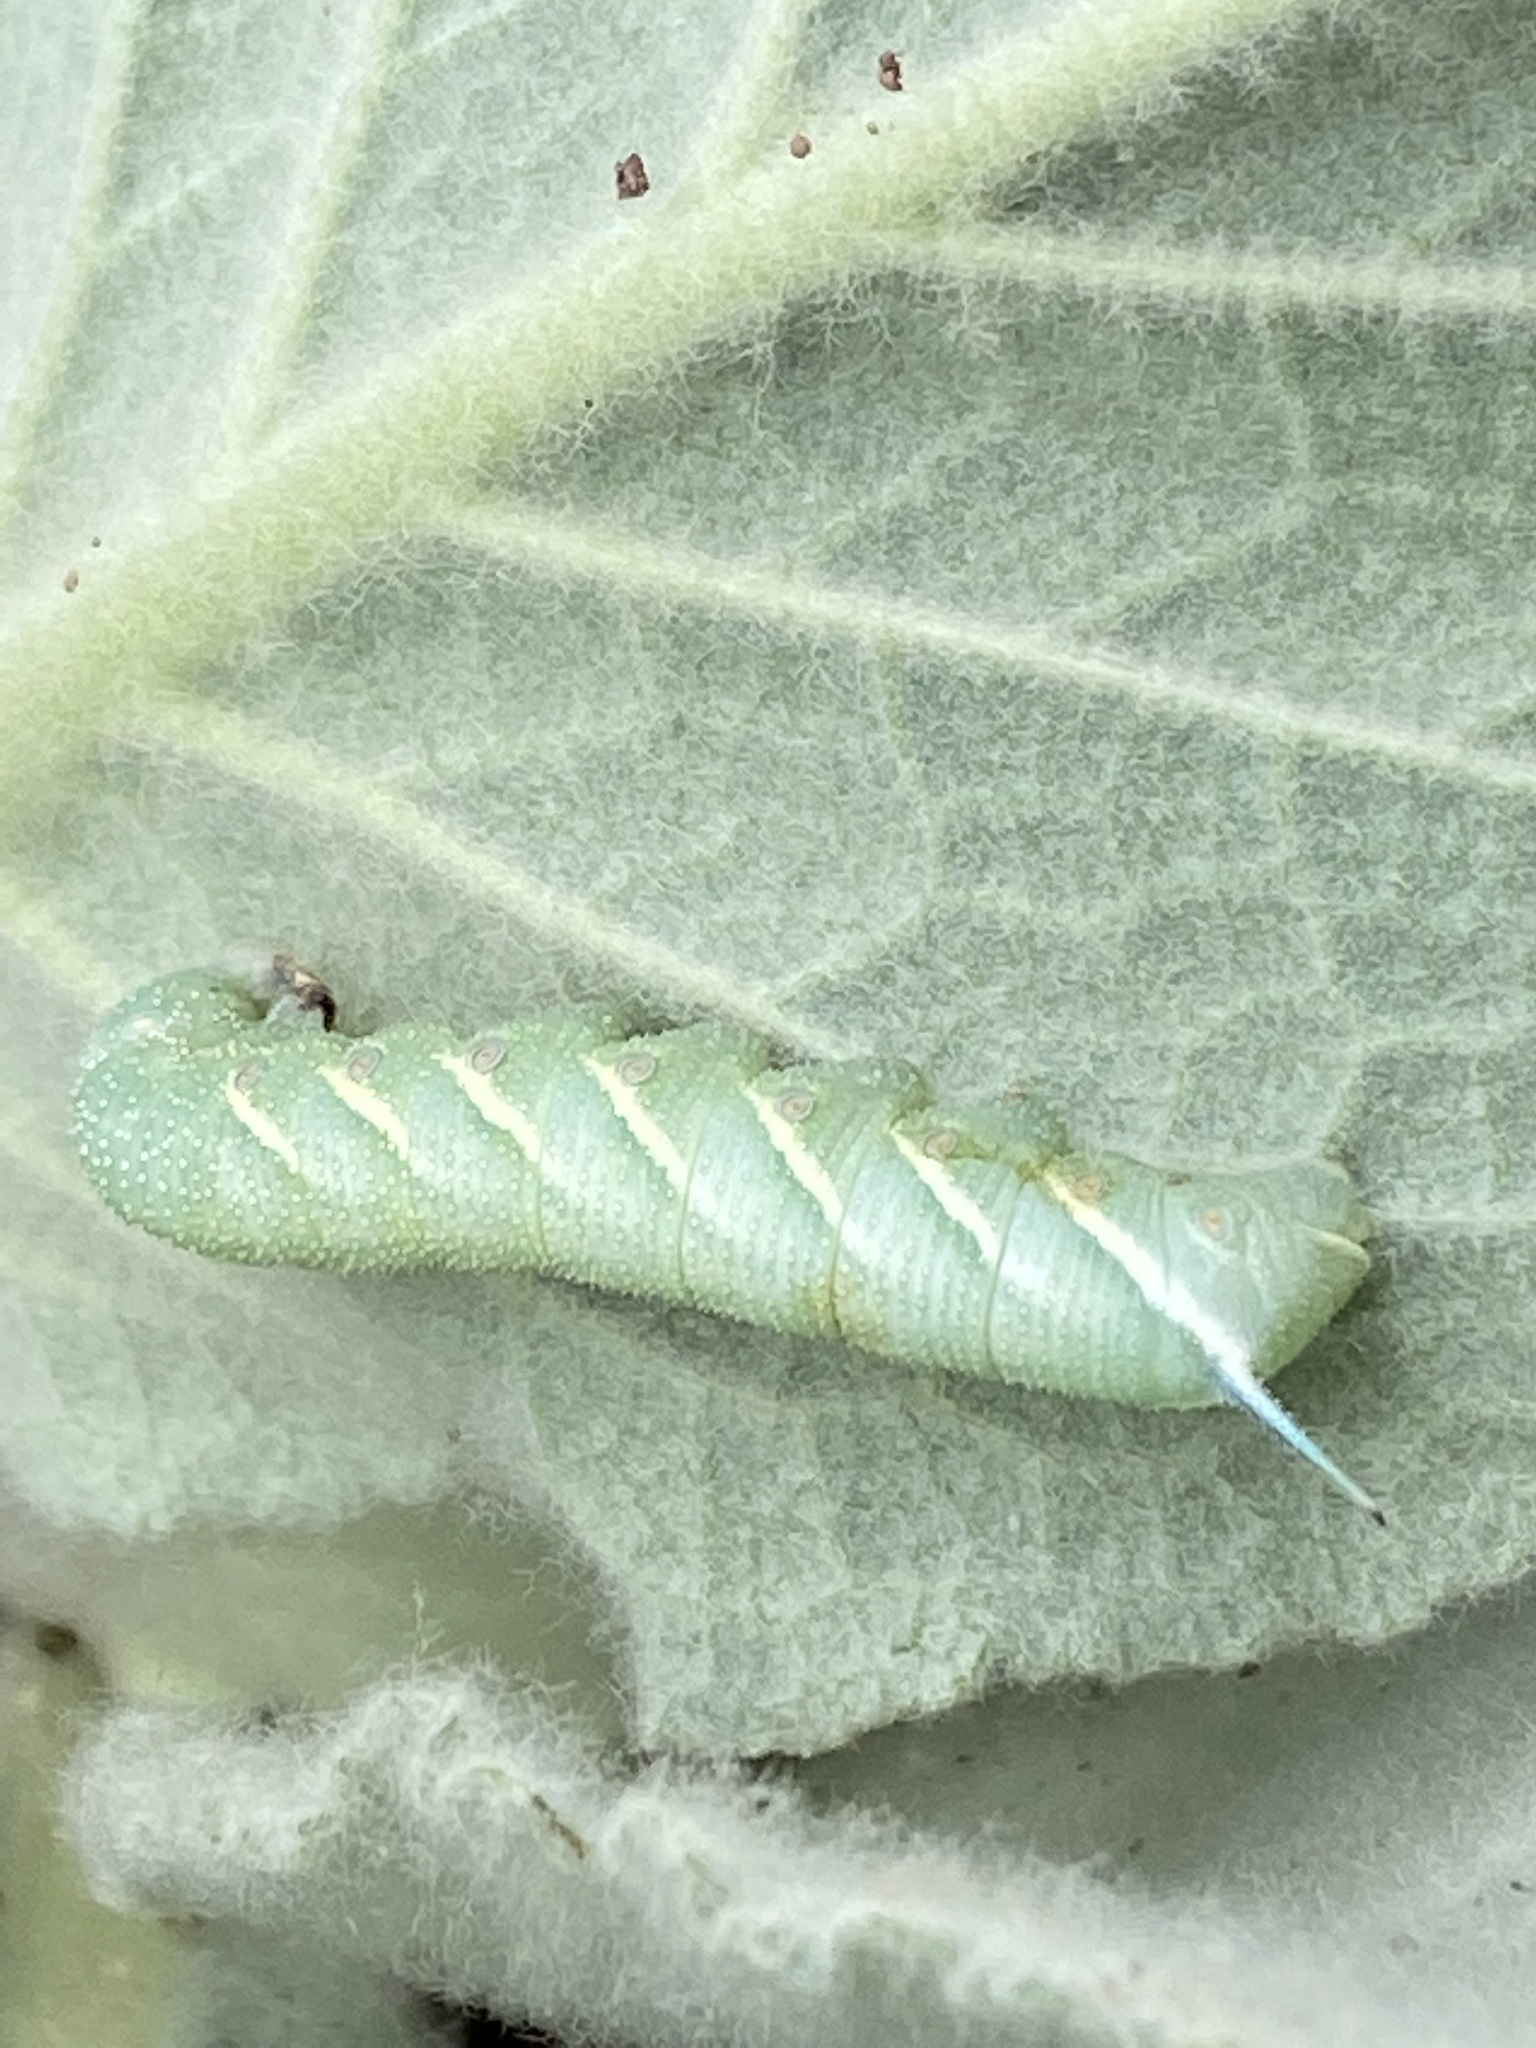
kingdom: Animalia
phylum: Arthropoda
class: Insecta
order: Lepidoptera
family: Sphingidae
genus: Manduca
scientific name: Manduca quinquemaculatus
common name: Five-spotted hawk-moth
